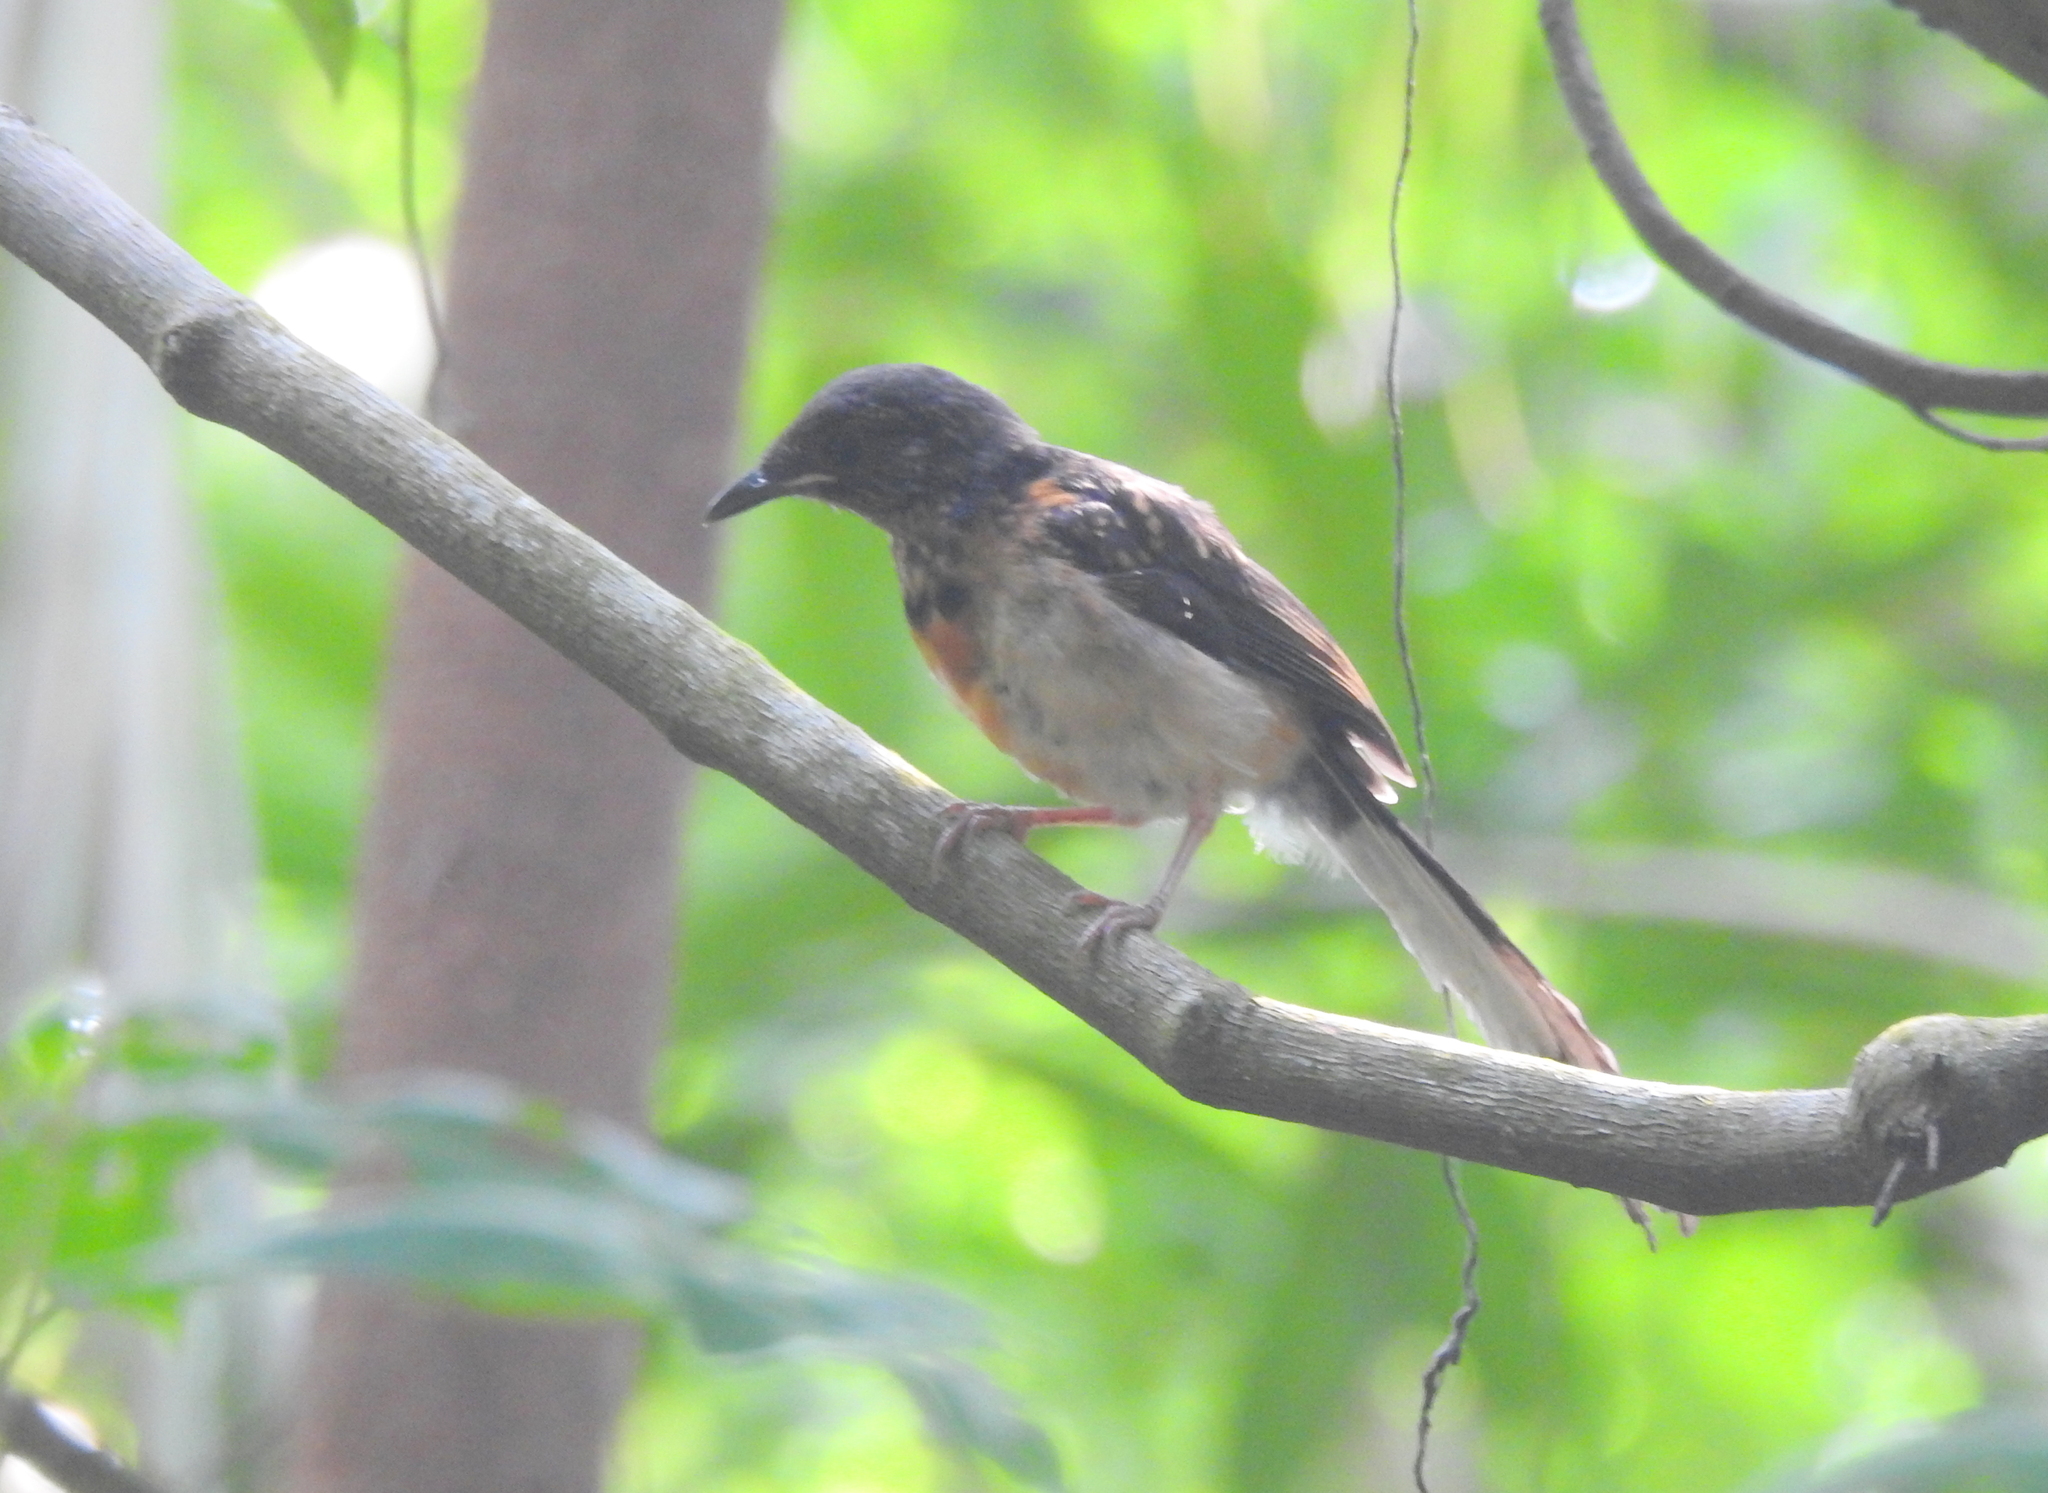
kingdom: Animalia
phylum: Chordata
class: Aves
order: Passeriformes
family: Muscicapidae
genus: Copsychus
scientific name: Copsychus malabaricus
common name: White-rumped shama
